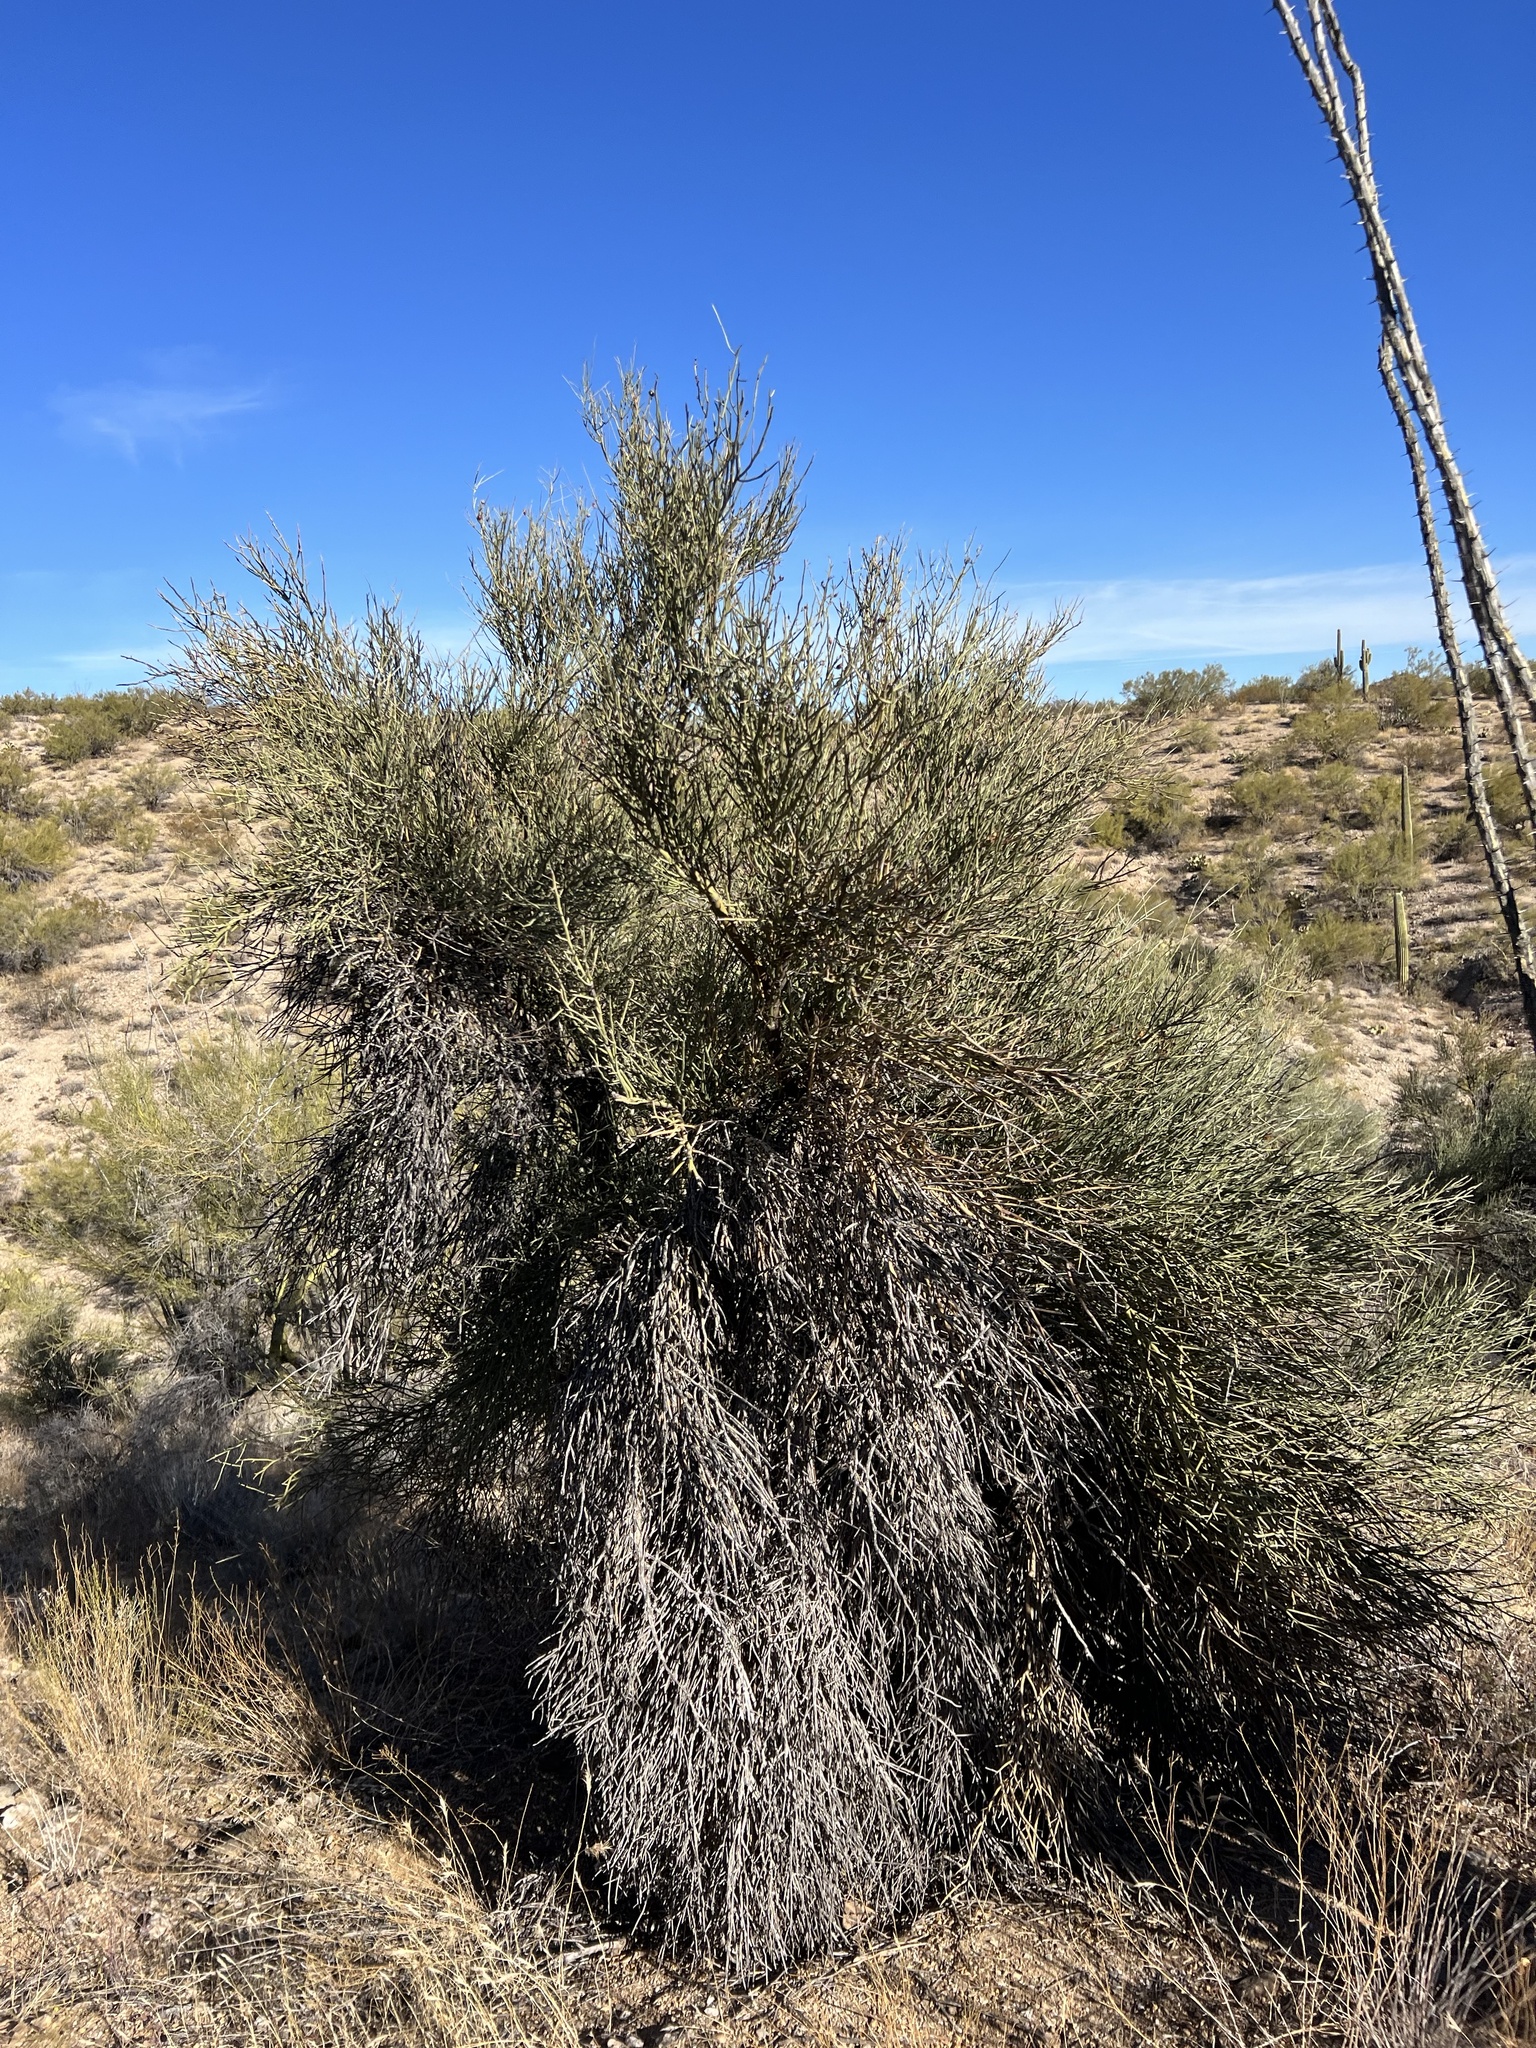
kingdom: Plantae
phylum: Tracheophyta
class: Magnoliopsida
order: Celastrales
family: Celastraceae
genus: Canotia
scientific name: Canotia holacantha
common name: Crucifixion thorns
